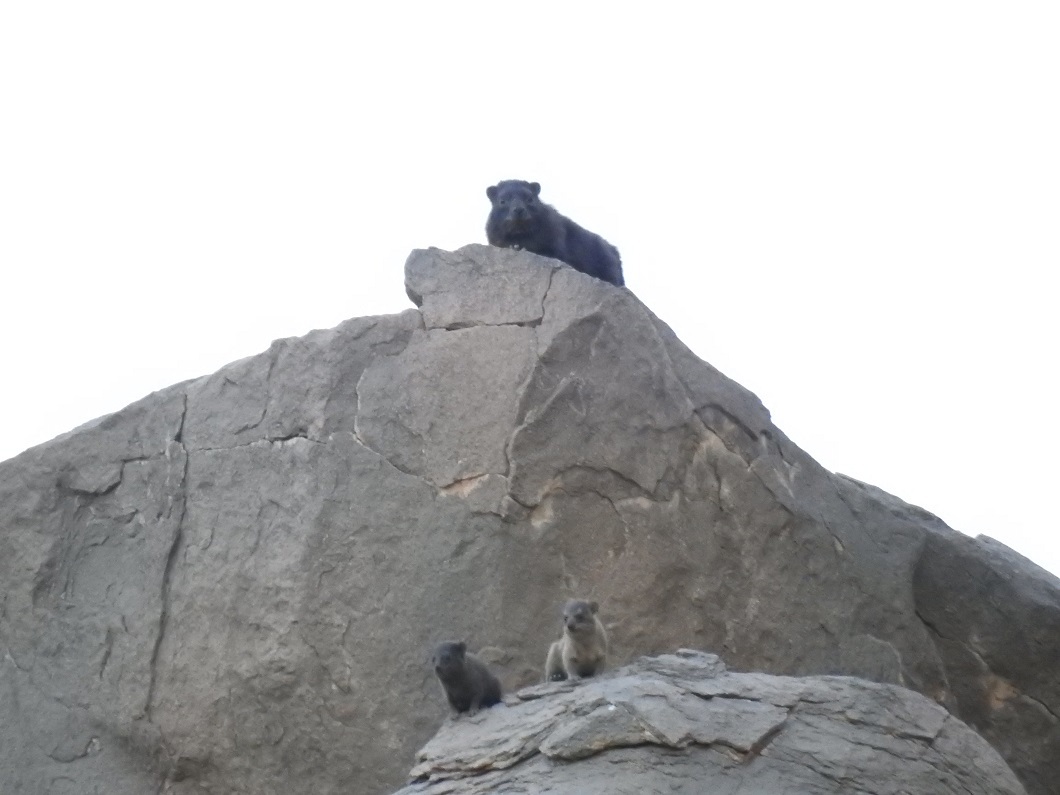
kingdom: Animalia
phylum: Chordata
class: Mammalia
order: Hyracoidea
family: Procaviidae
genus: Procavia
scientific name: Procavia capensis
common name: Rock hyrax
